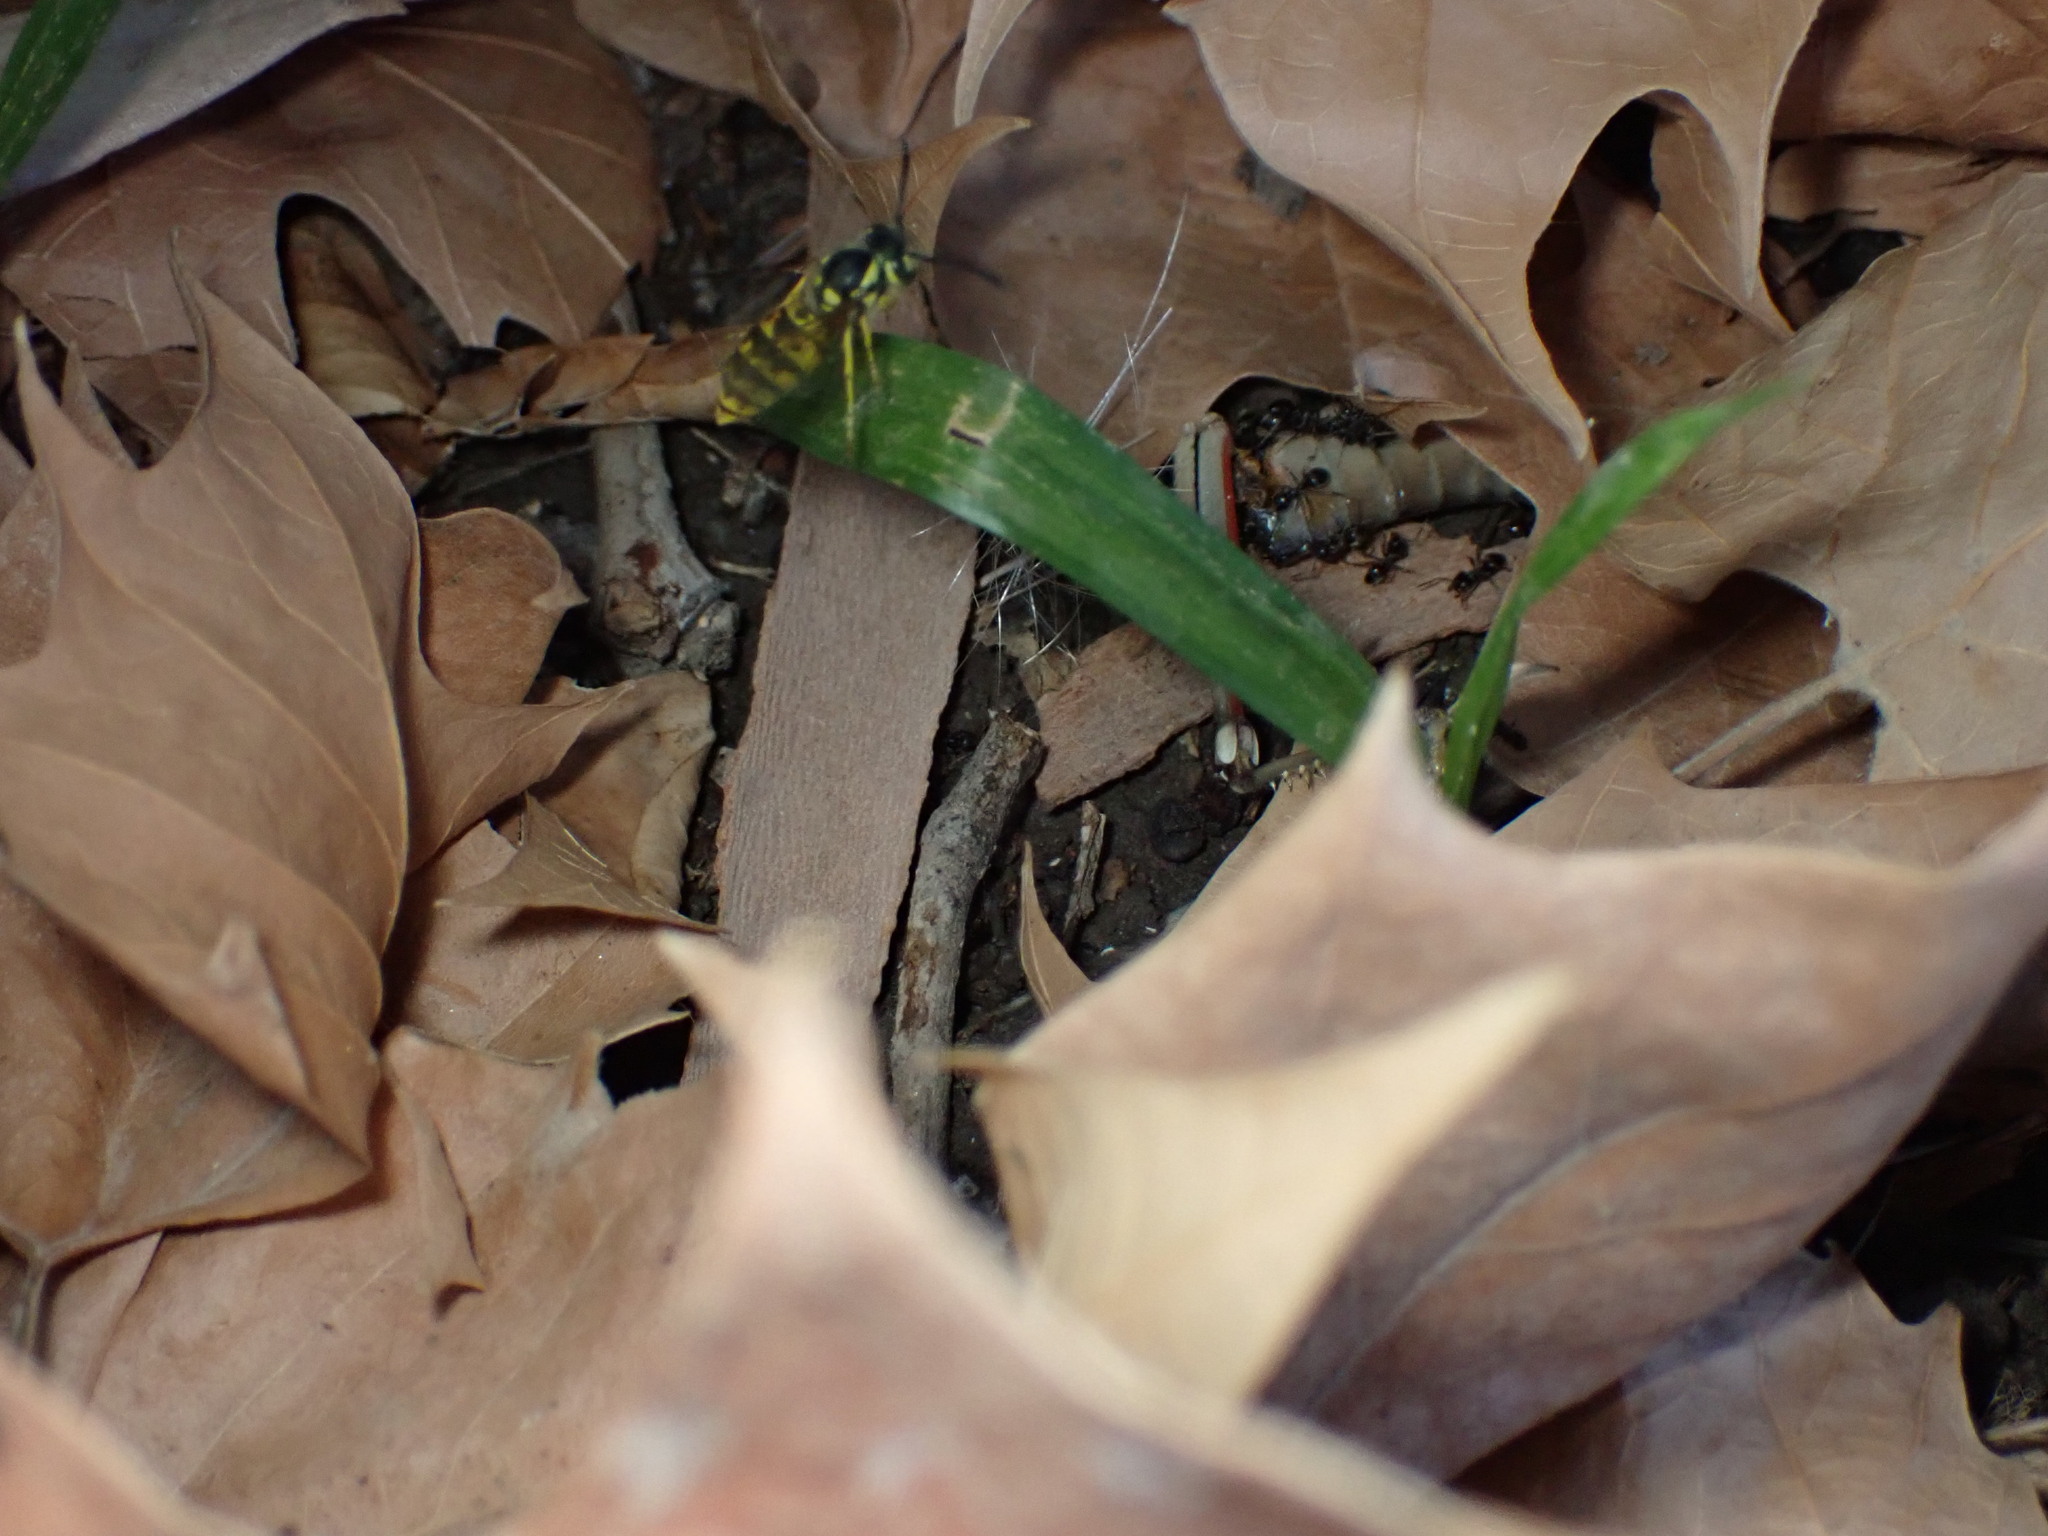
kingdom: Animalia
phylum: Arthropoda
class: Insecta
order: Hymenoptera
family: Vespidae
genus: Vespula
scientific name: Vespula germanica
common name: German wasp
